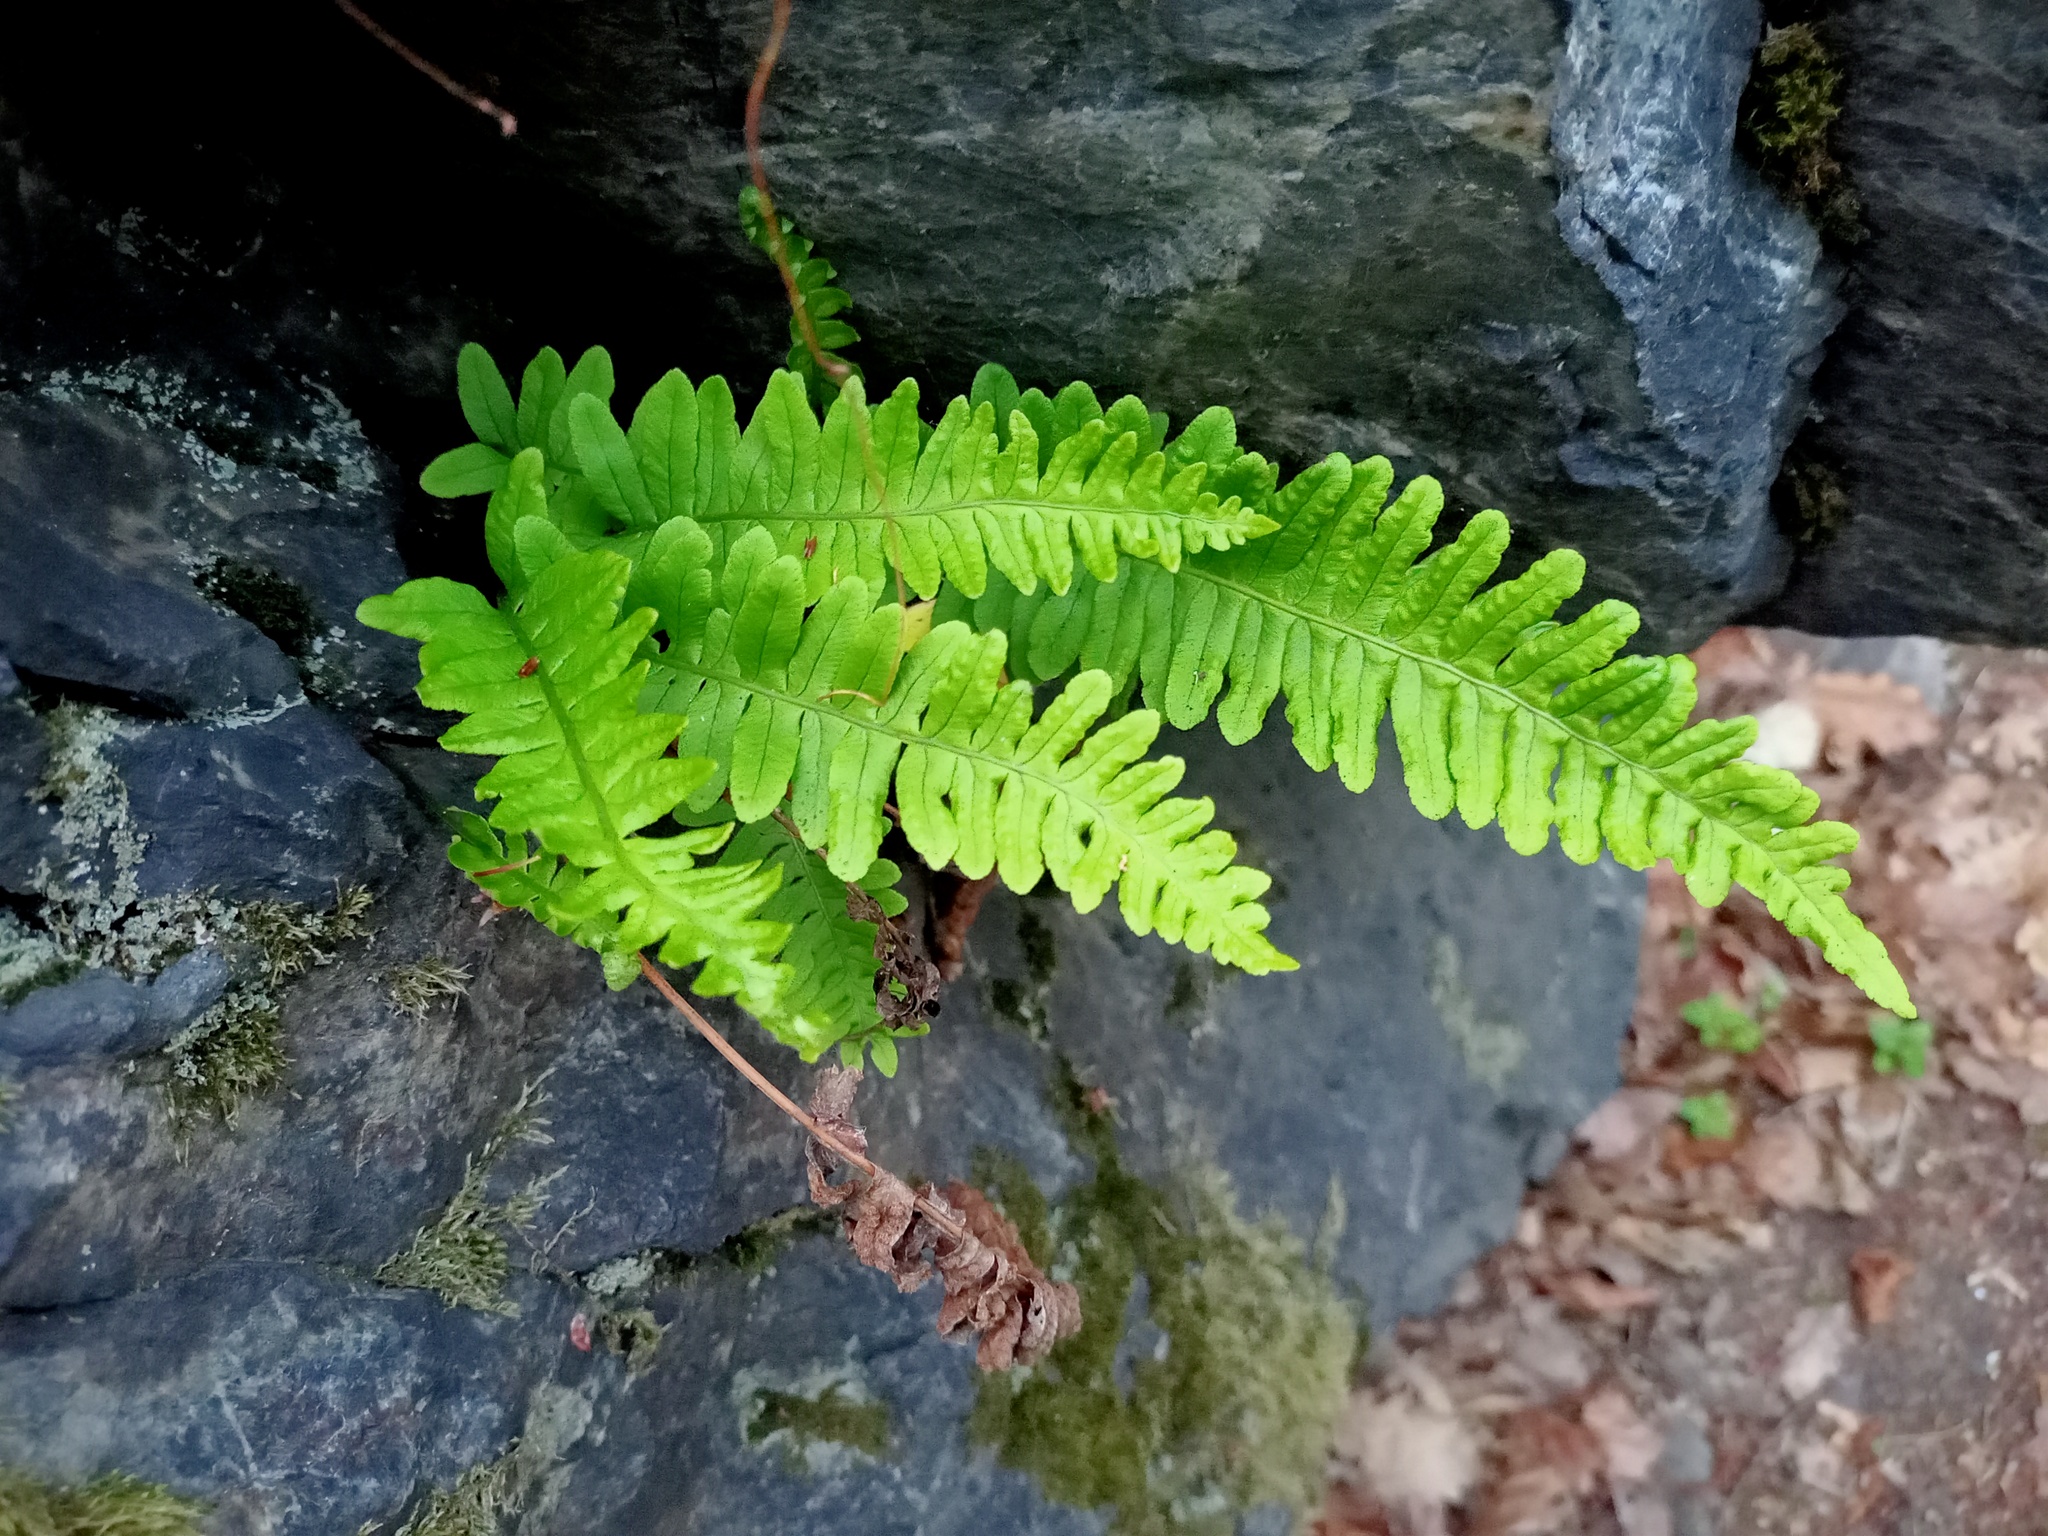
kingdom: Plantae
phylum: Tracheophyta
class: Polypodiopsida
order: Polypodiales
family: Polypodiaceae
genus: Polypodium
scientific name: Polypodium vulgare
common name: Common polypody
